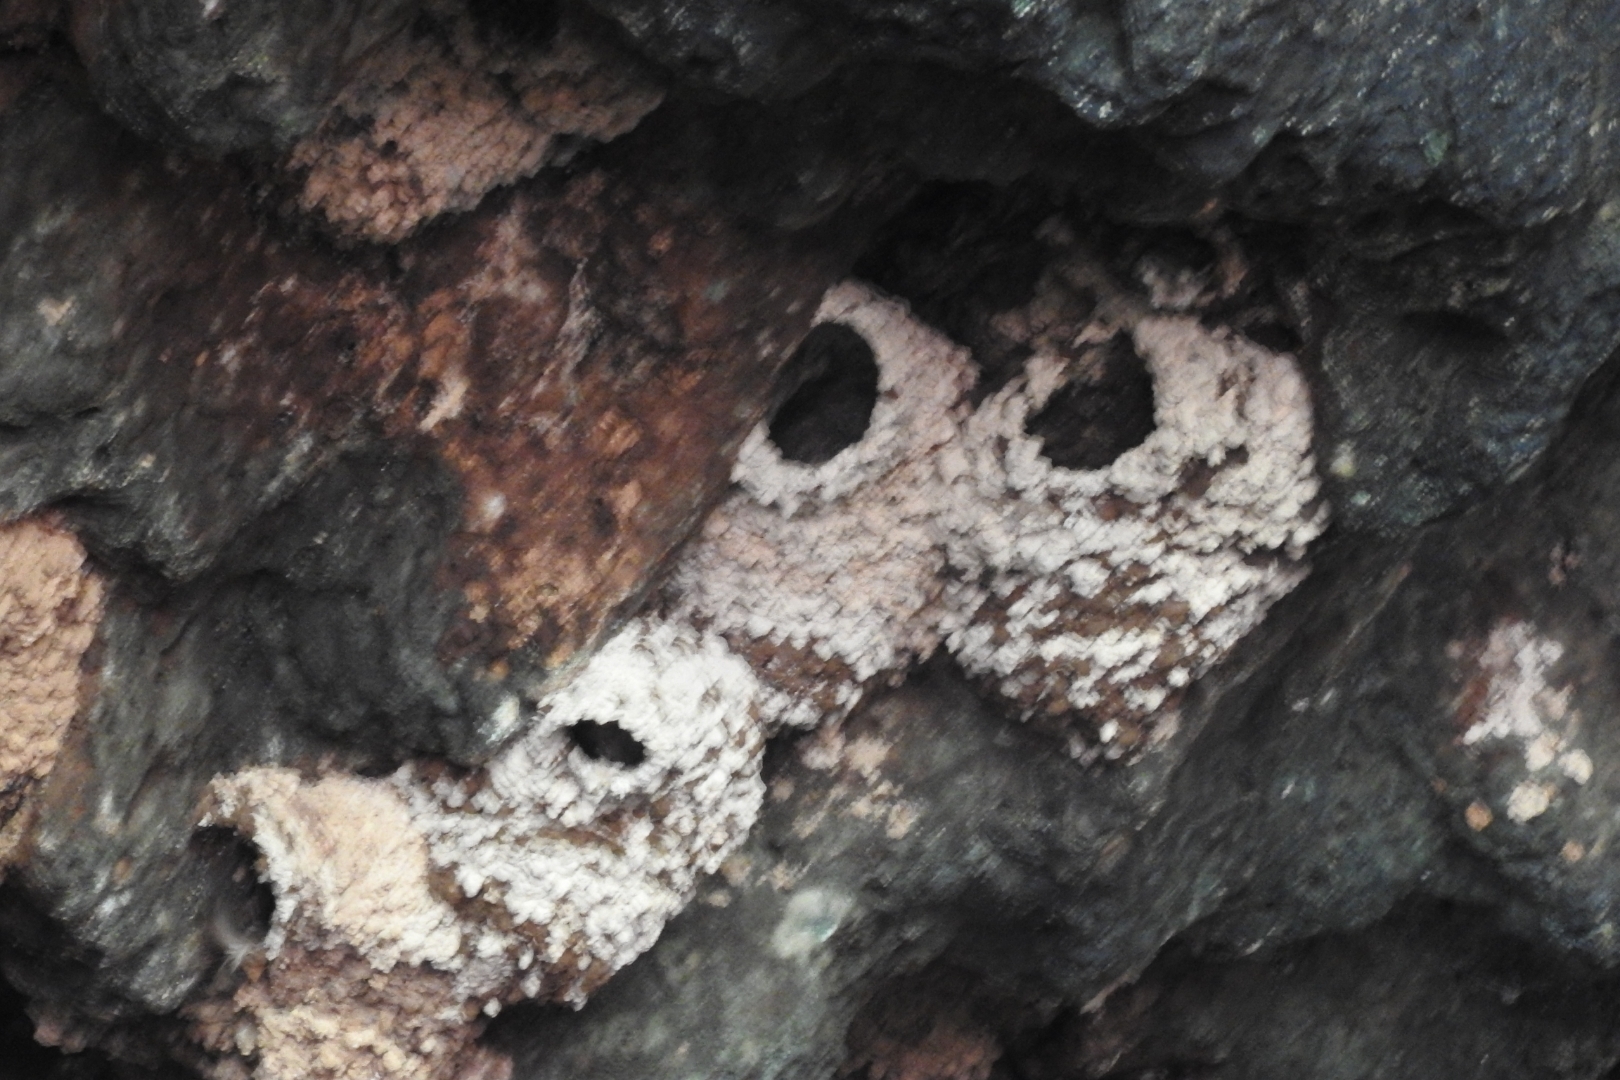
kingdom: Animalia
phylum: Chordata
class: Aves
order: Passeriformes
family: Hirundinidae
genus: Petrochelidon
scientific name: Petrochelidon fulva
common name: Cave swallow
